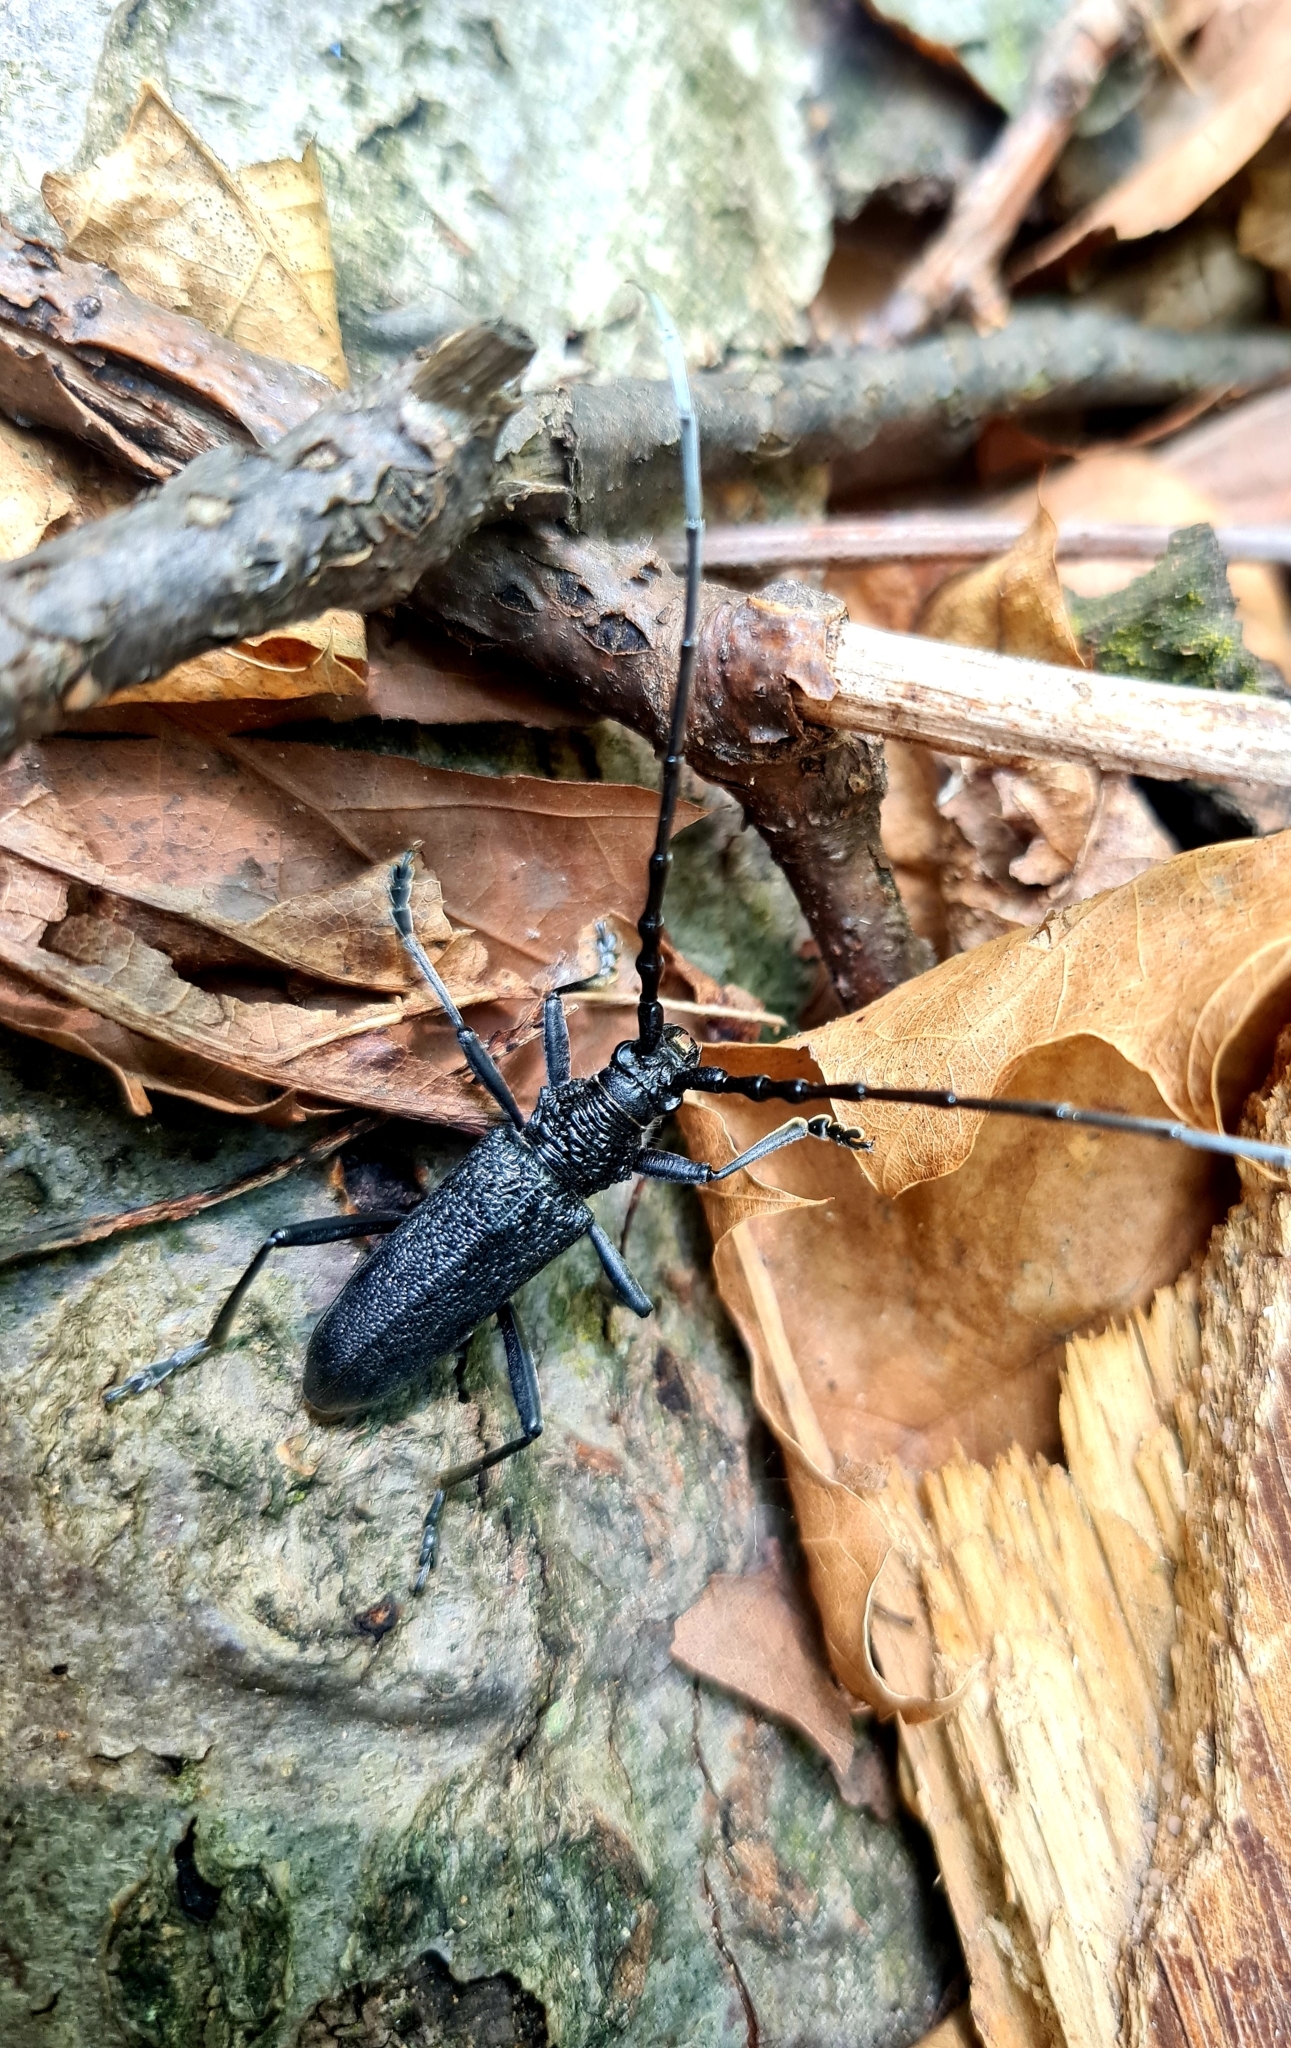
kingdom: Animalia
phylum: Arthropoda
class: Insecta
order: Coleoptera
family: Cerambycidae
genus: Cerambyx
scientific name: Cerambyx scopolii
